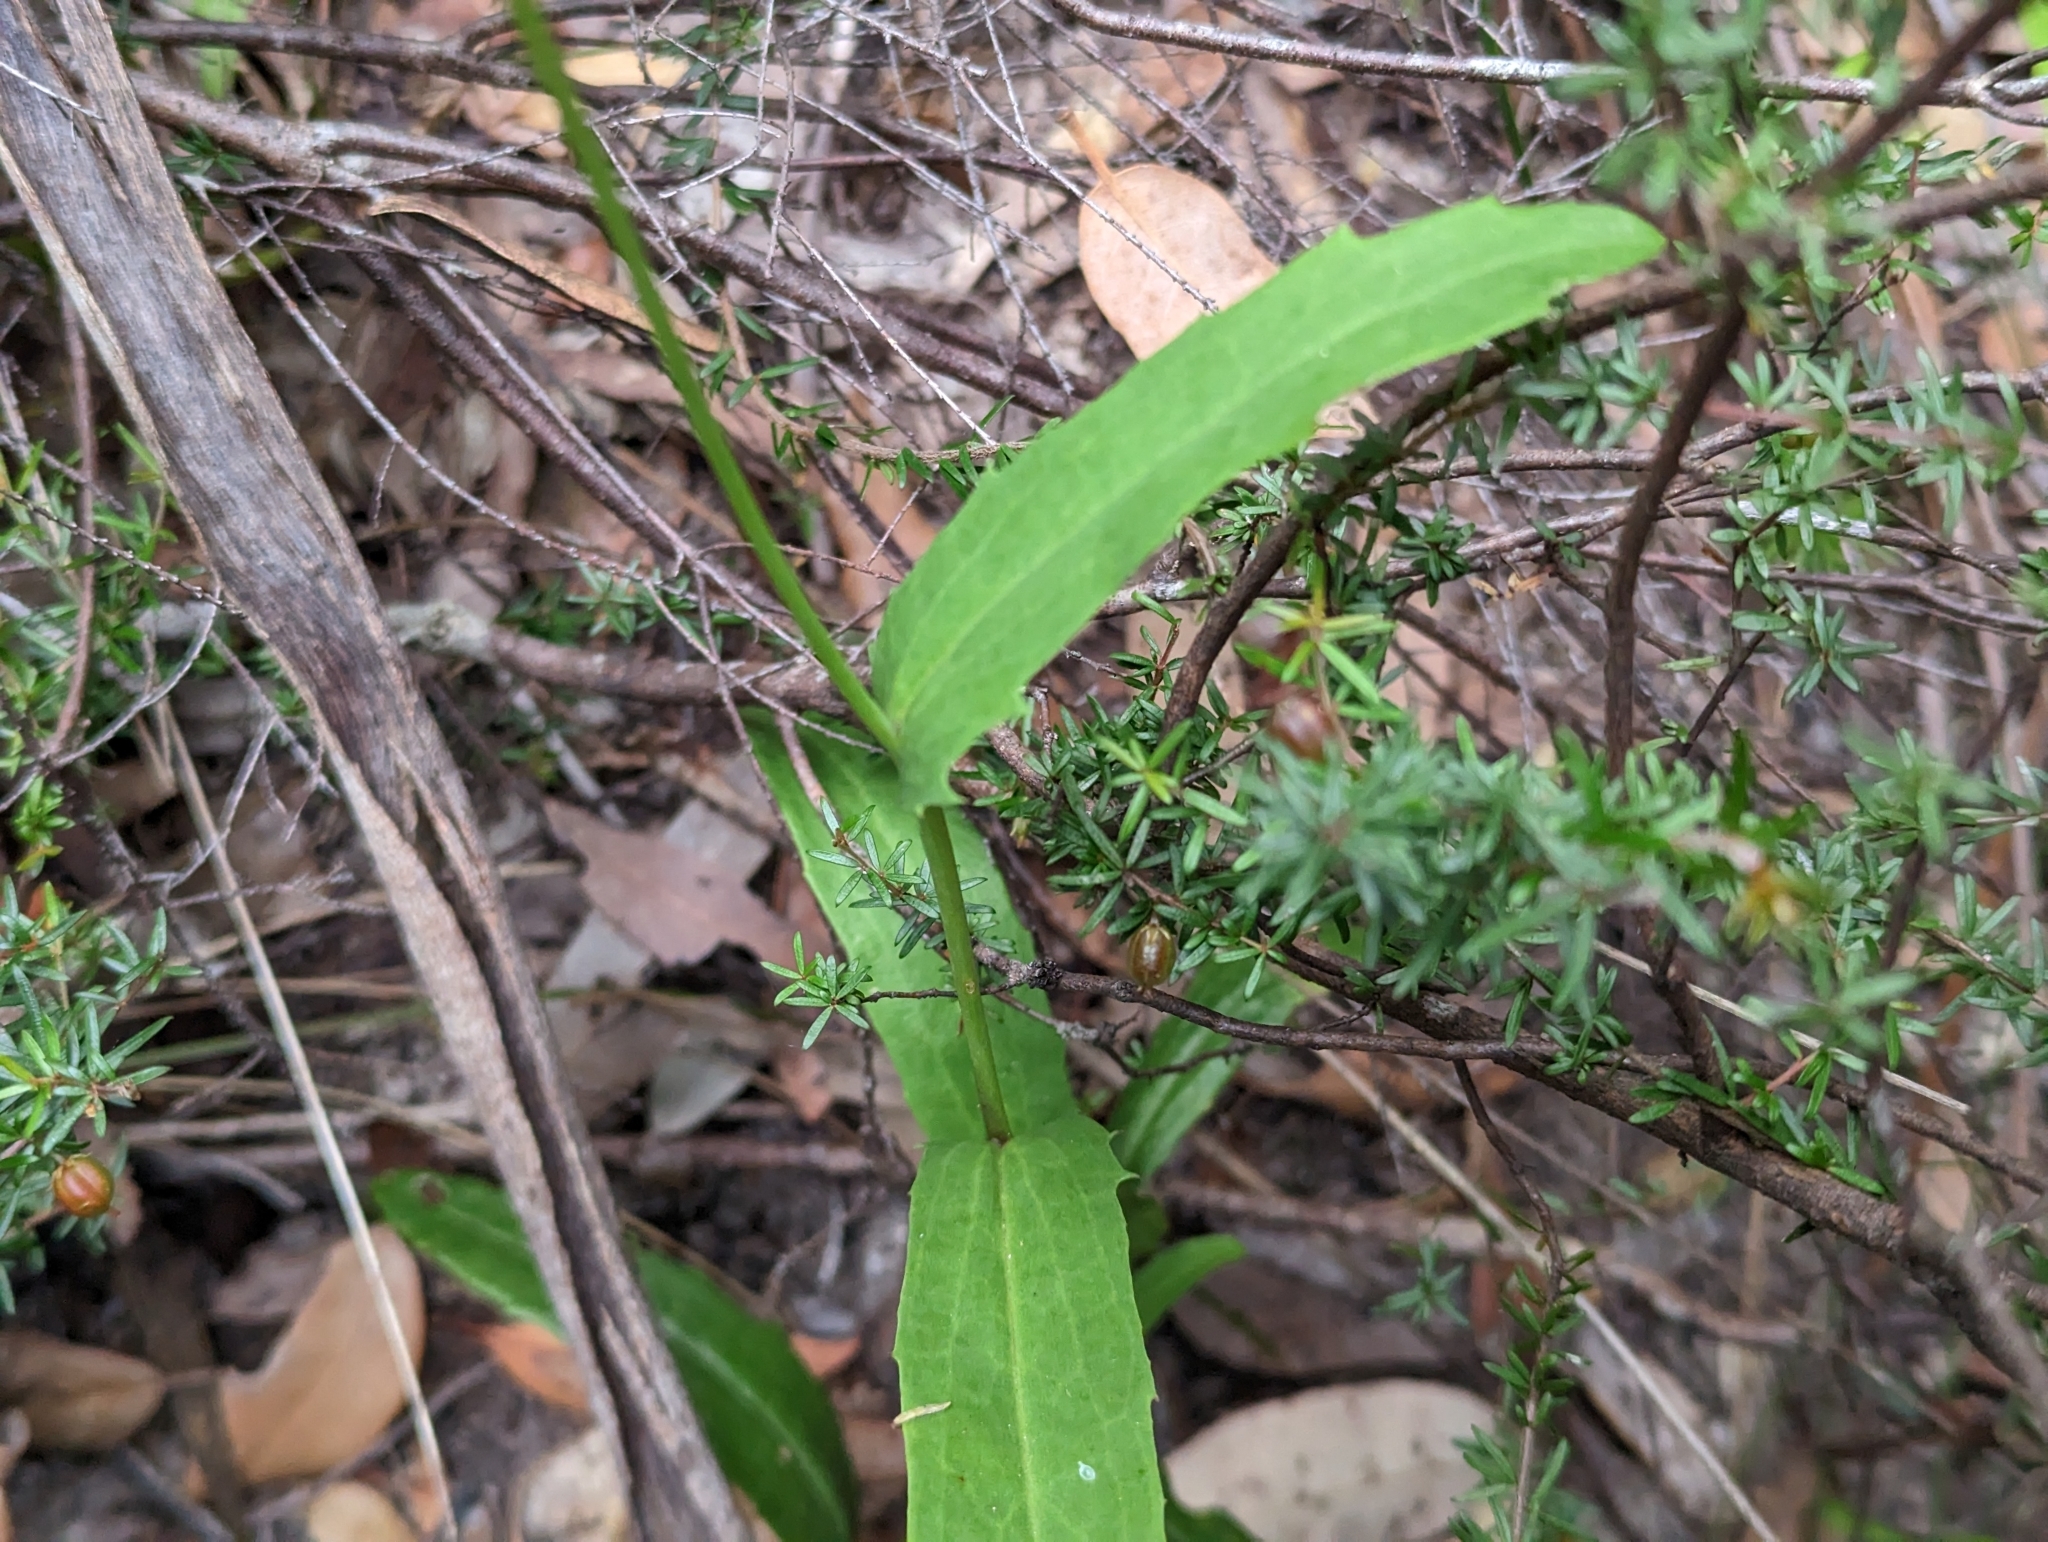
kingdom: Plantae
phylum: Tracheophyta
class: Magnoliopsida
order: Asterales
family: Goodeniaceae
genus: Goodenia
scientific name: Goodenia decurrens
